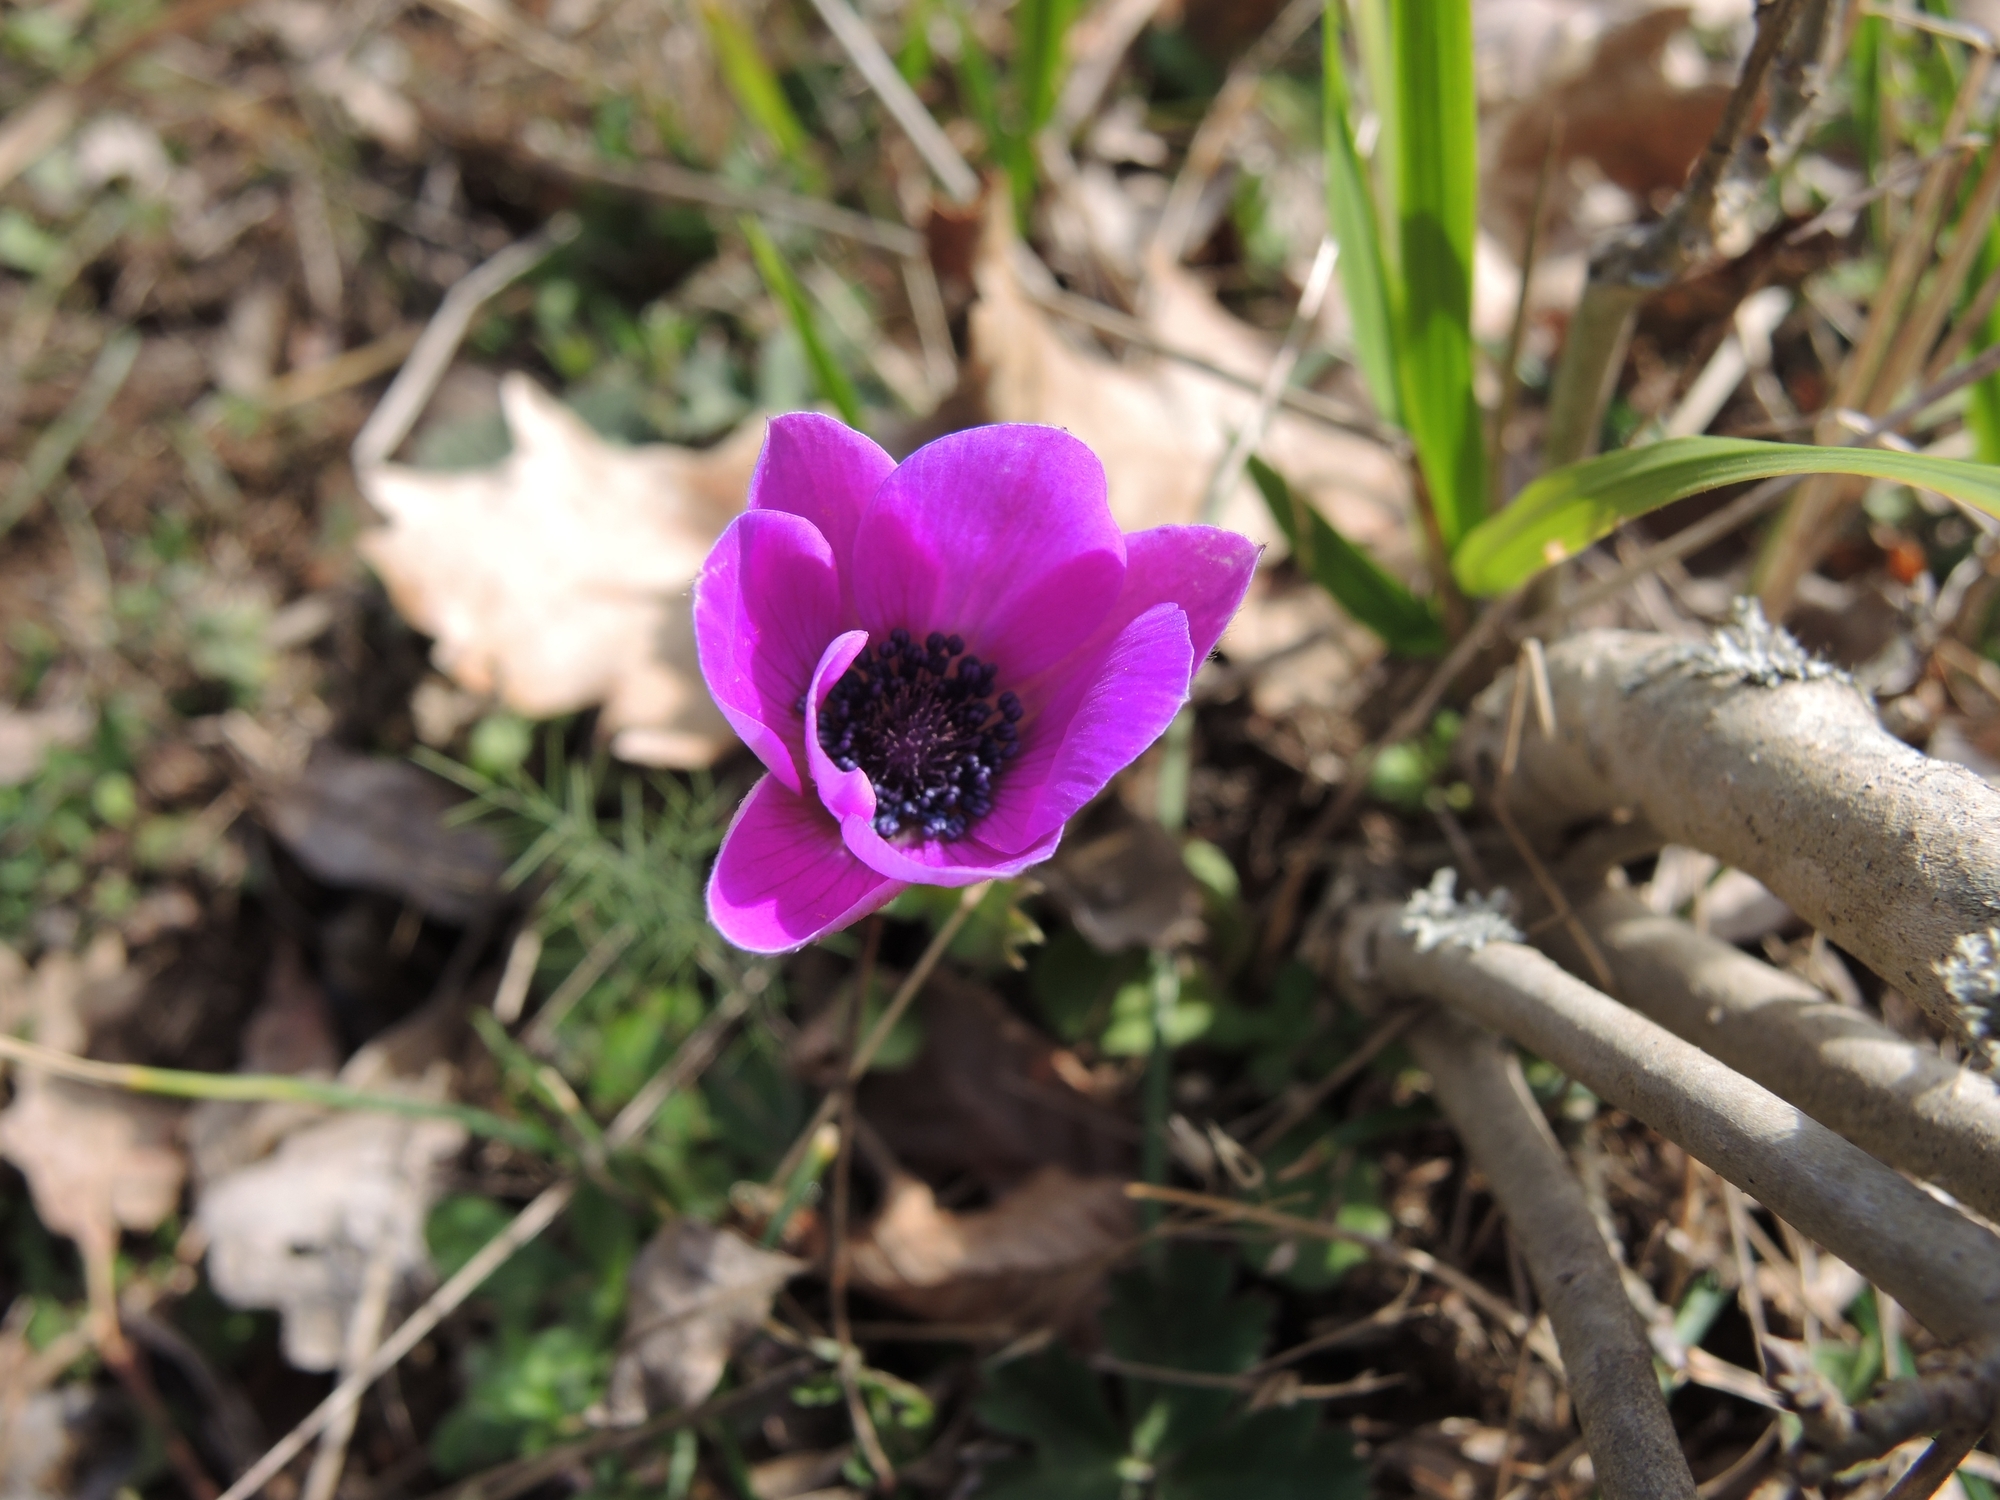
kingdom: Plantae
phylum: Tracheophyta
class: Magnoliopsida
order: Ranunculales
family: Ranunculaceae
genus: Anemone
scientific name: Anemone pavonina
